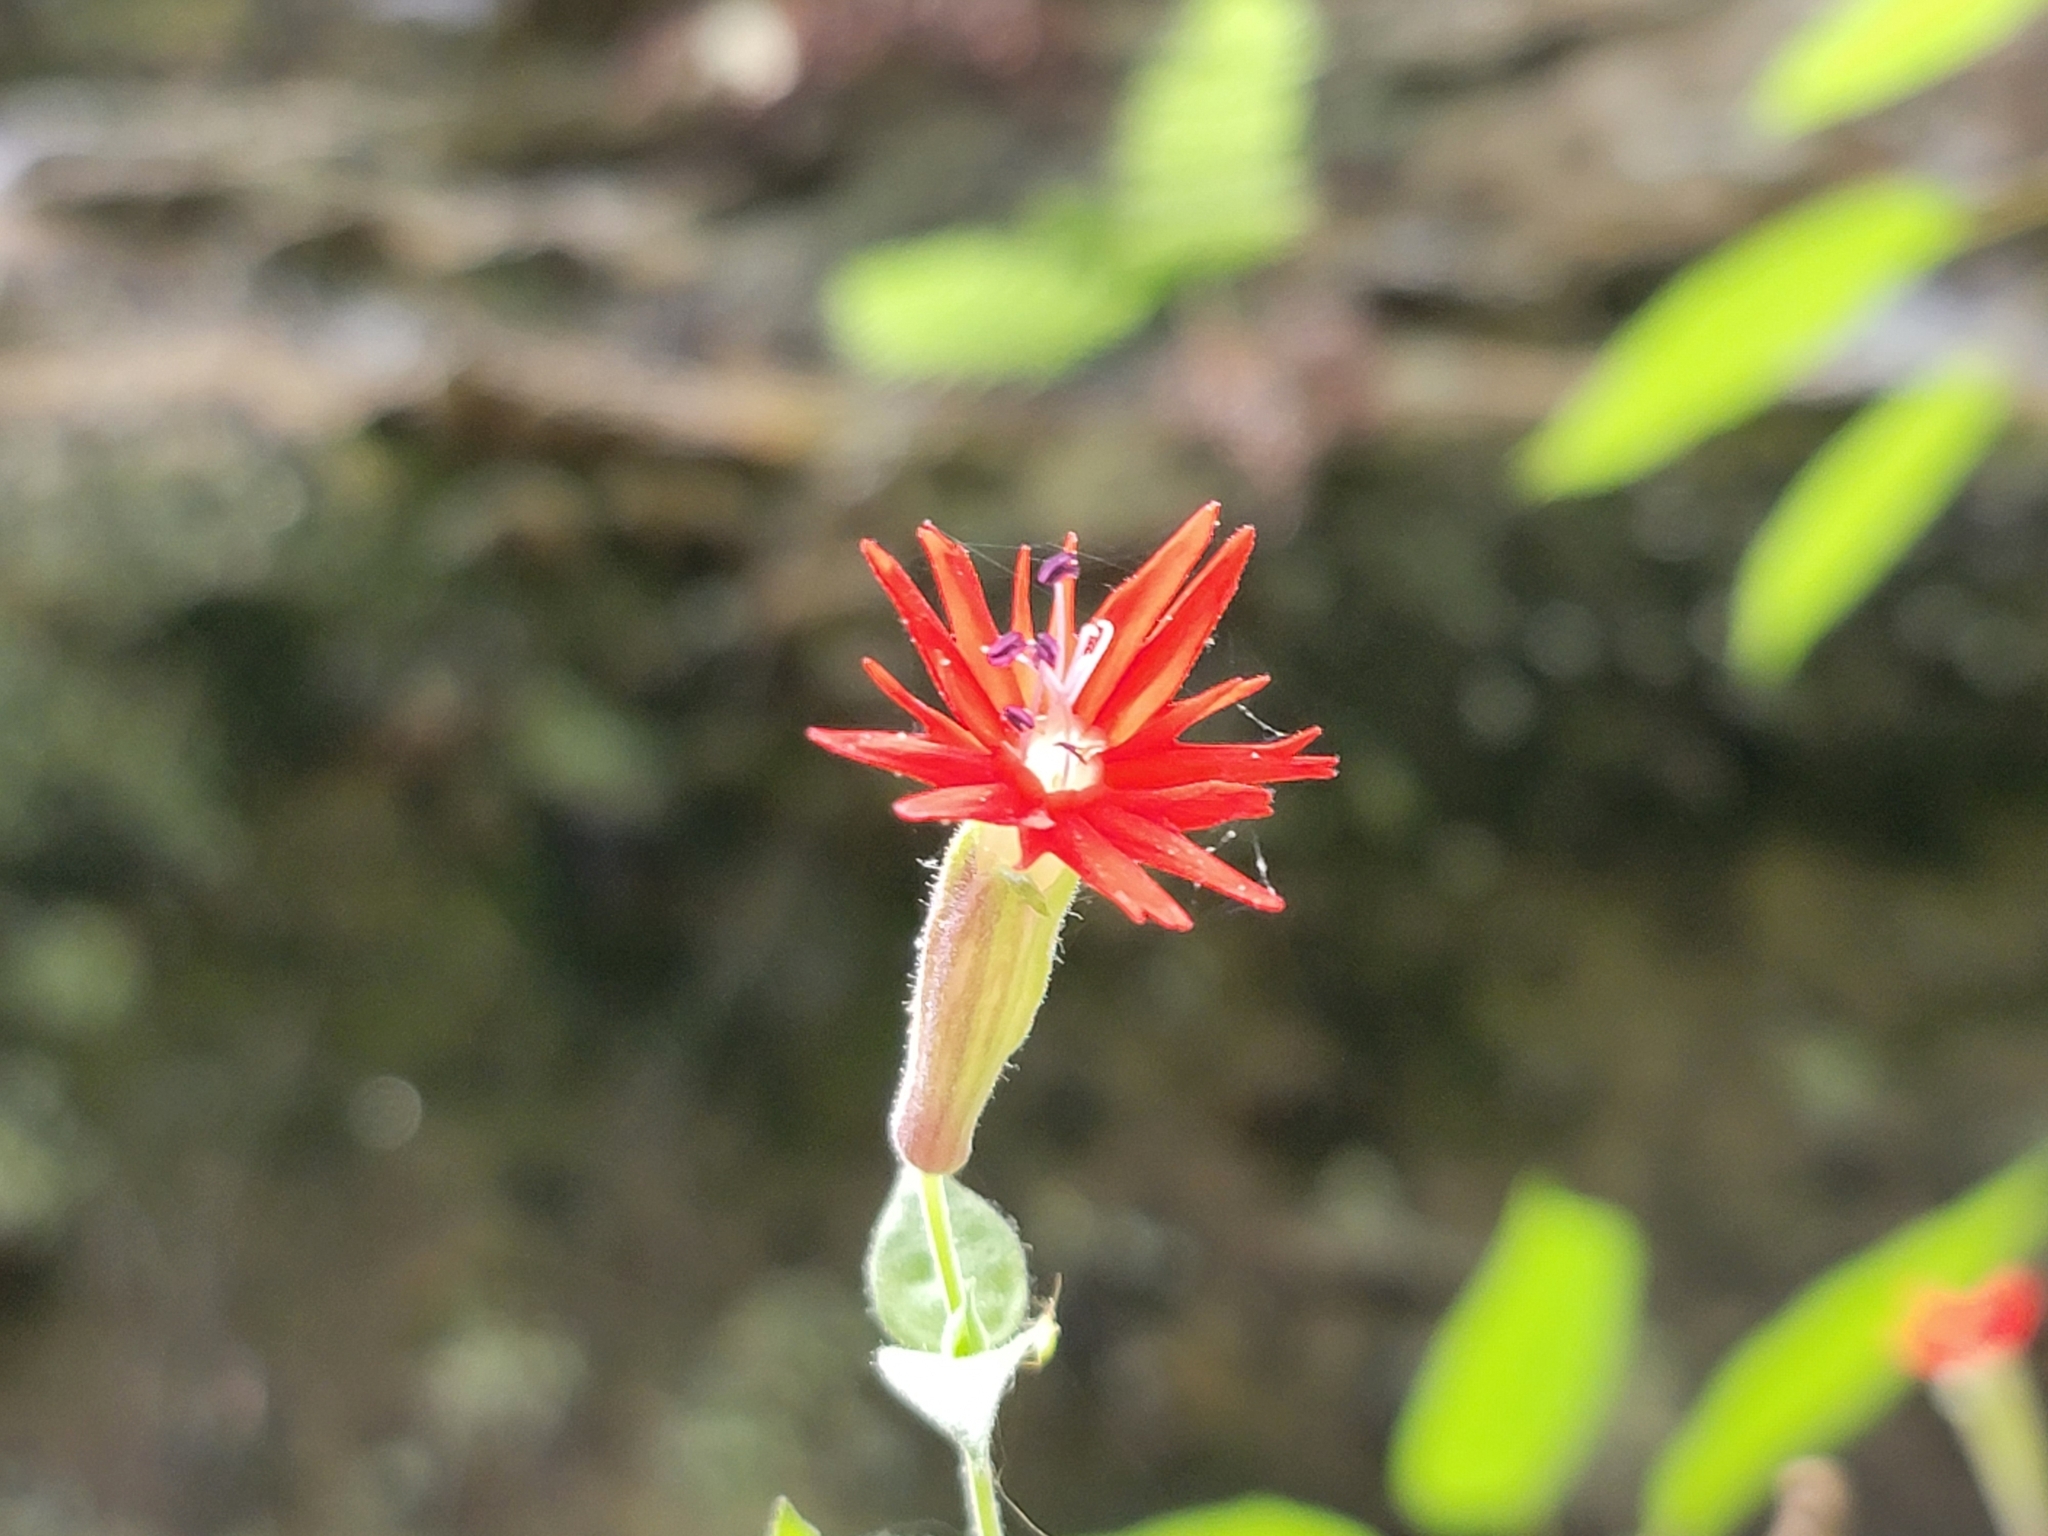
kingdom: Plantae
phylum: Tracheophyta
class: Magnoliopsida
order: Caryophyllales
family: Caryophyllaceae
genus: Silene
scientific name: Silene rotundifolia
